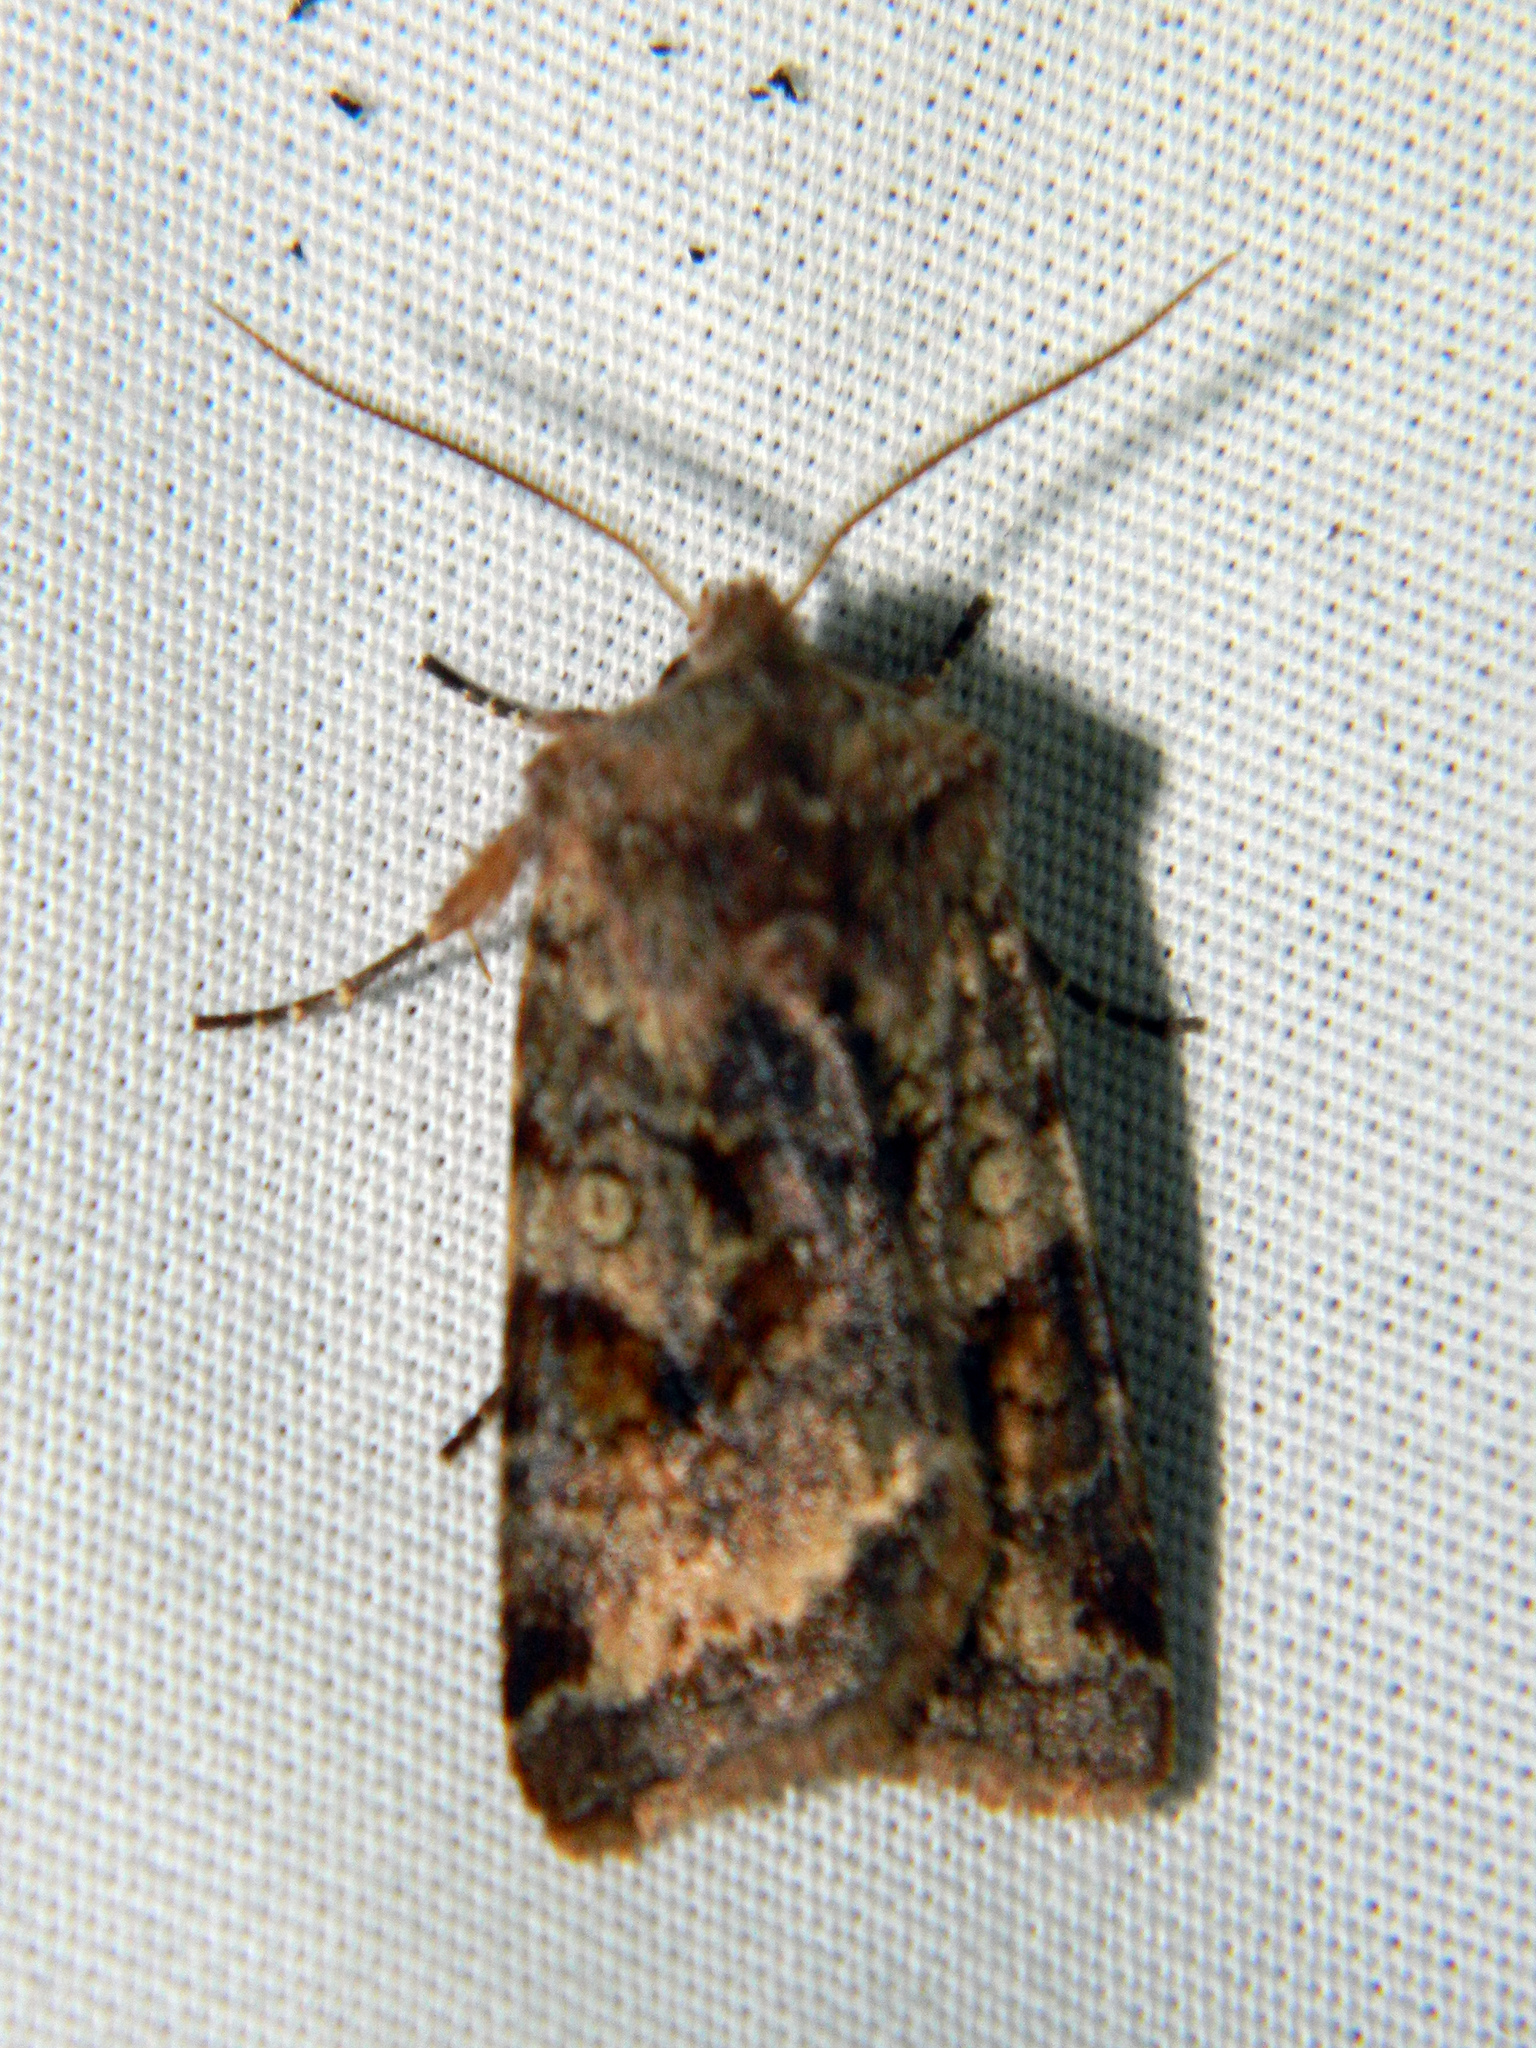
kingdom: Animalia
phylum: Arthropoda
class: Insecta
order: Lepidoptera
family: Noctuidae
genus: Cerastis
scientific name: Cerastis salicarum
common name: Willow dart
